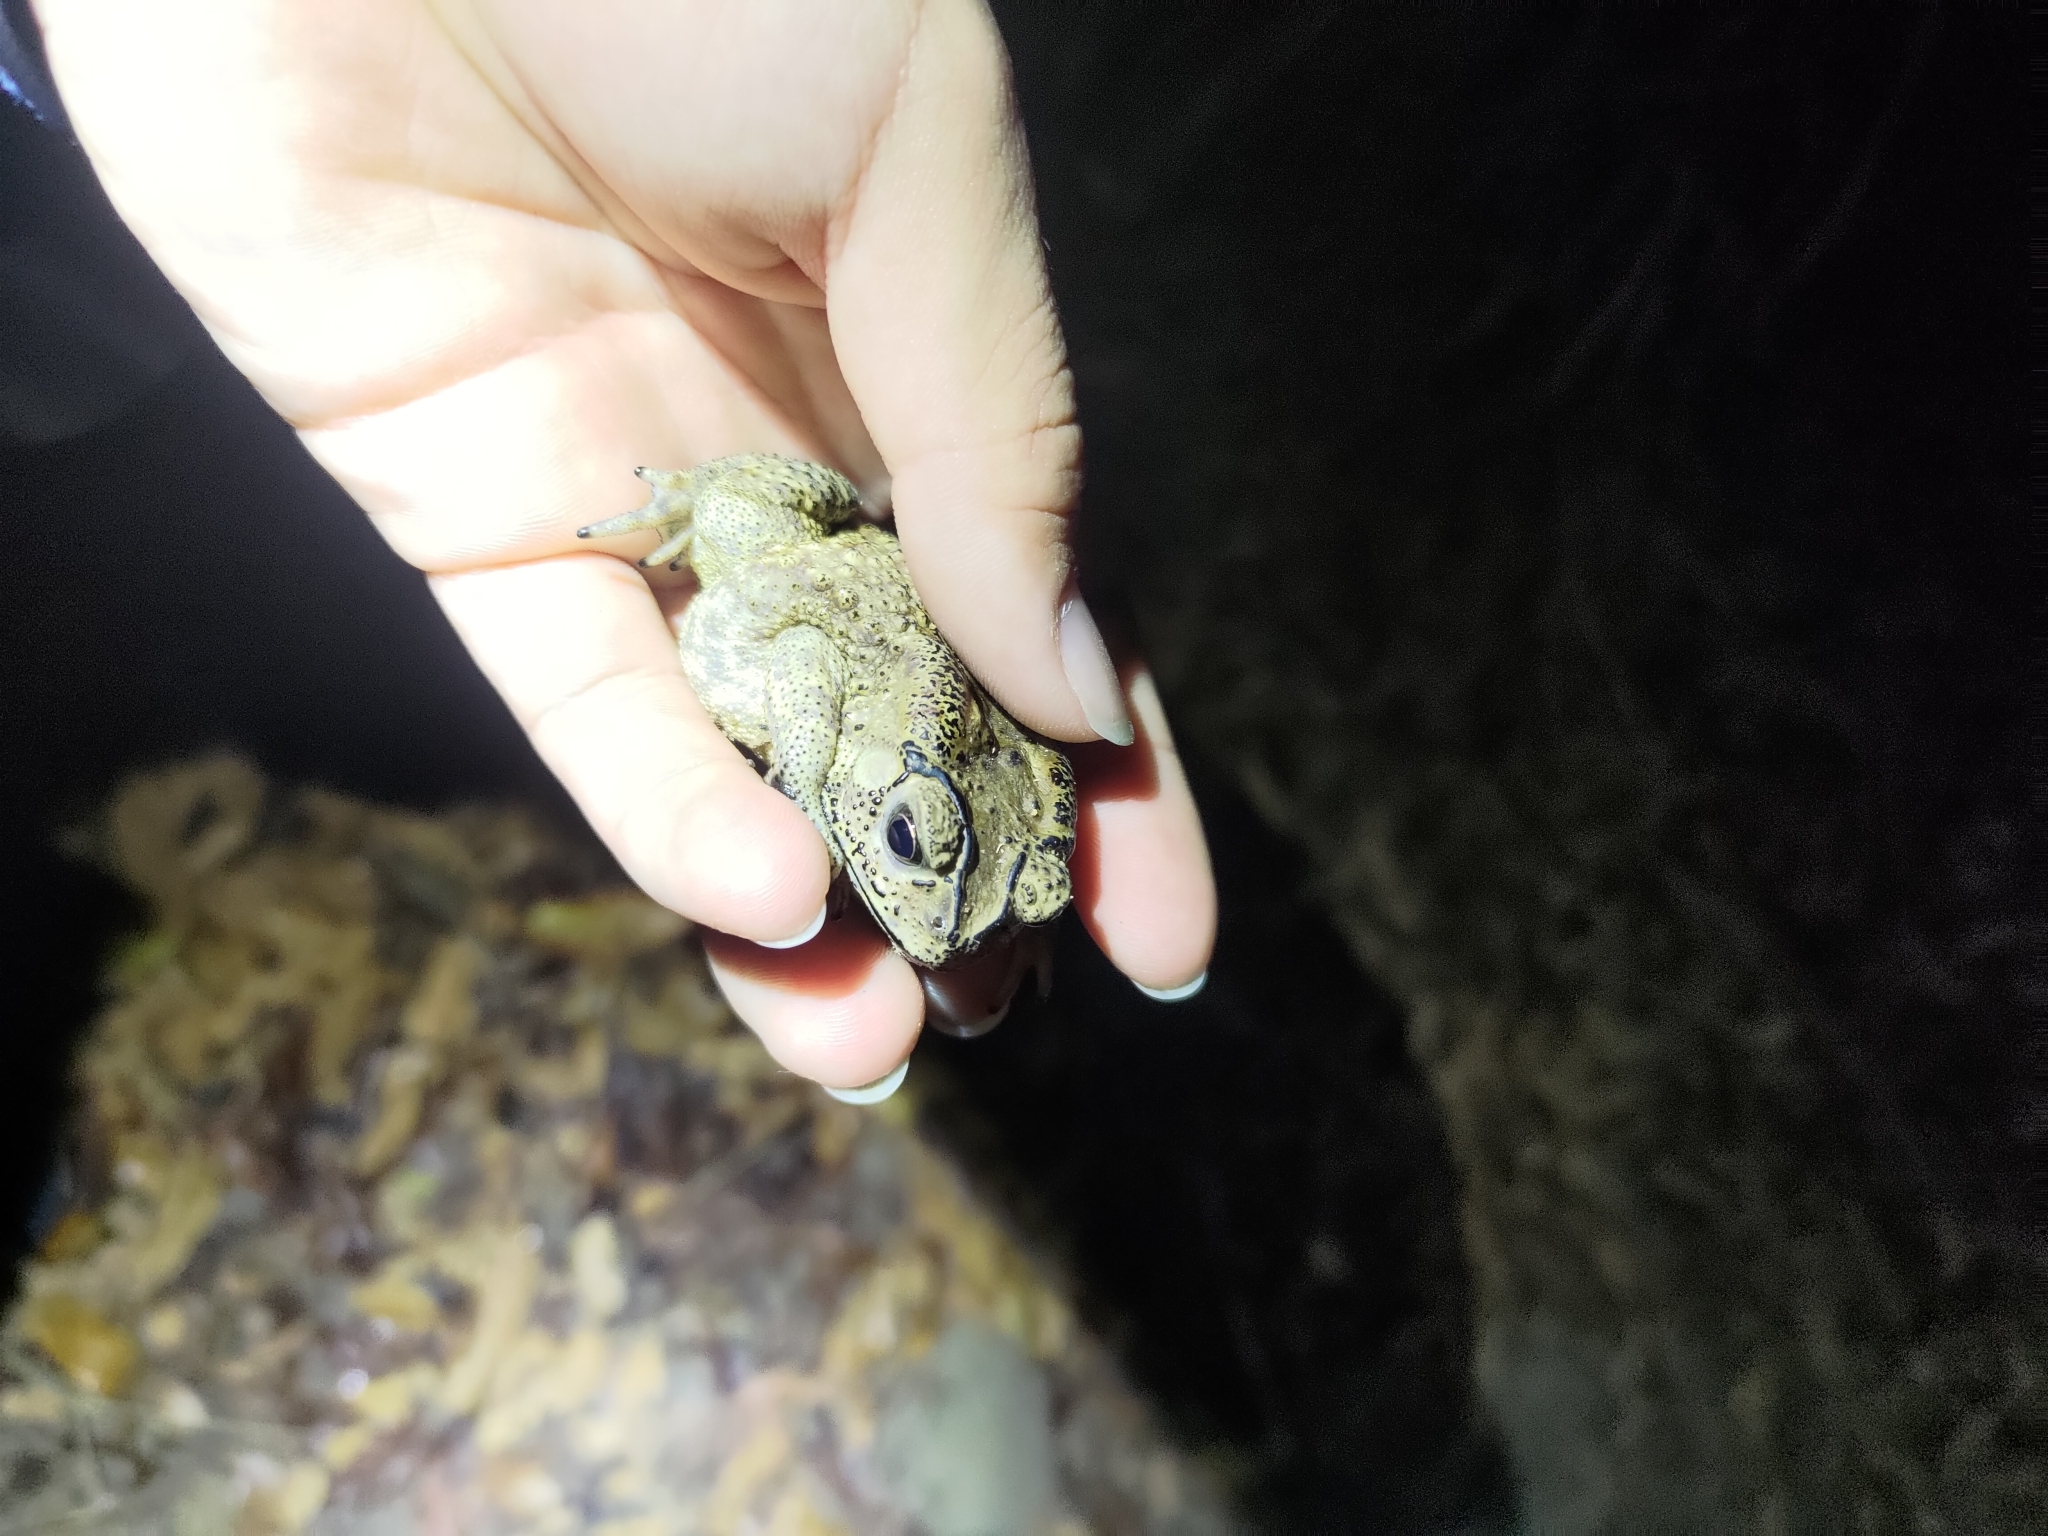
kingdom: Animalia
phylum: Chordata
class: Amphibia
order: Anura
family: Bufonidae
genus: Duttaphrynus
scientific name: Duttaphrynus melanostictus
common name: Common sunda toad
